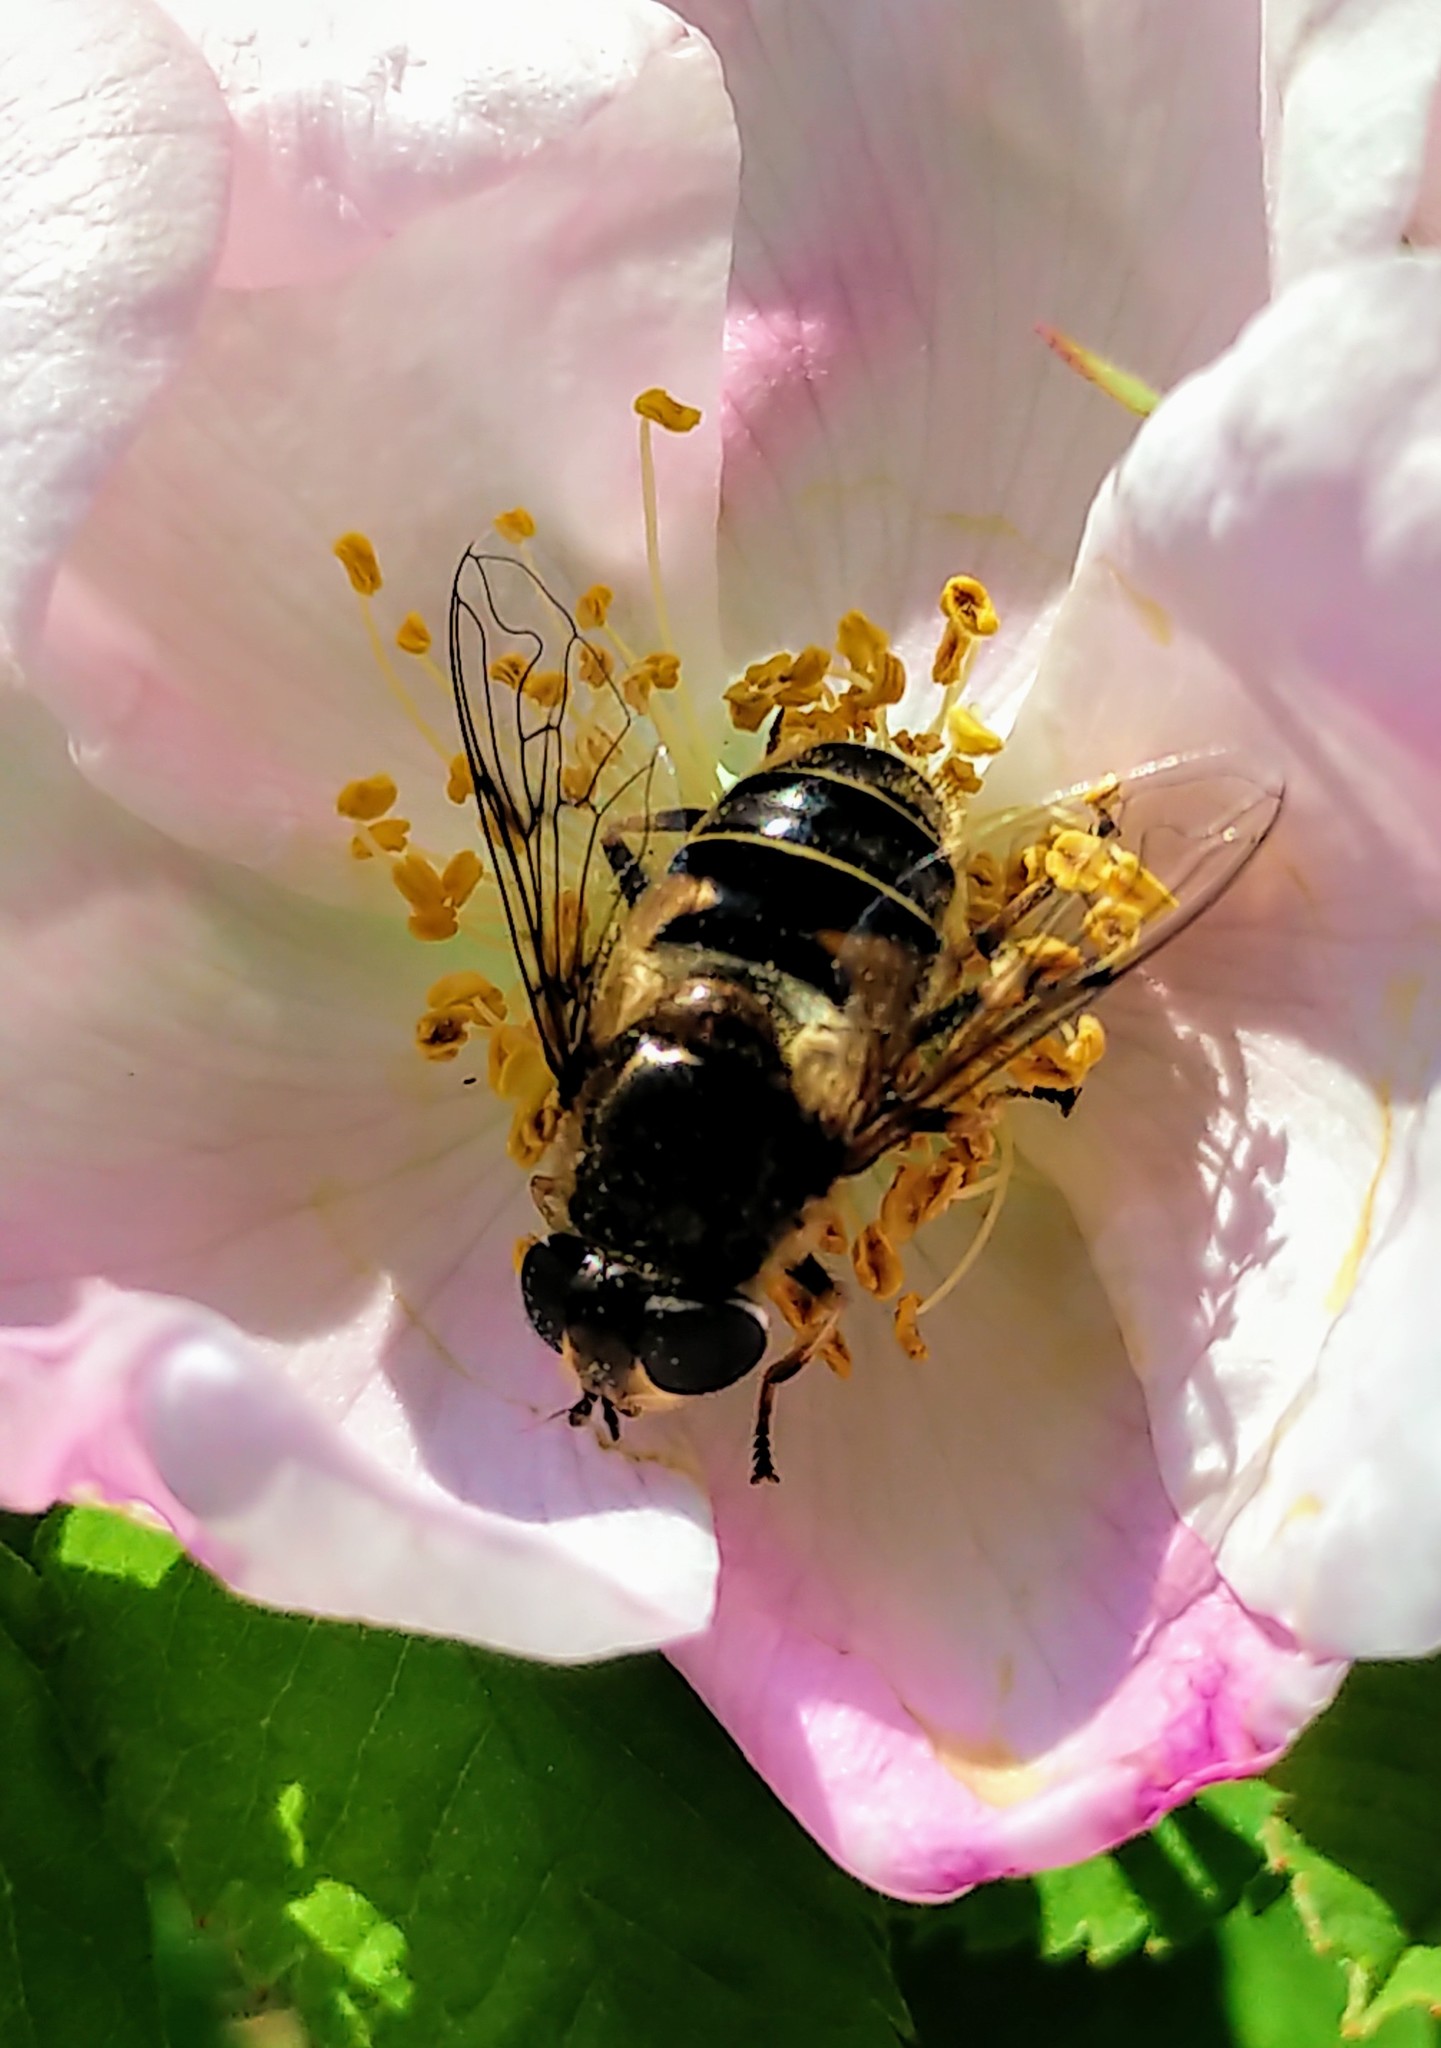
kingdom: Animalia
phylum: Arthropoda
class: Insecta
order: Diptera
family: Syrphidae
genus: Eristalis
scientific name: Eristalis nemorum
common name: Orange-spined drone fly
